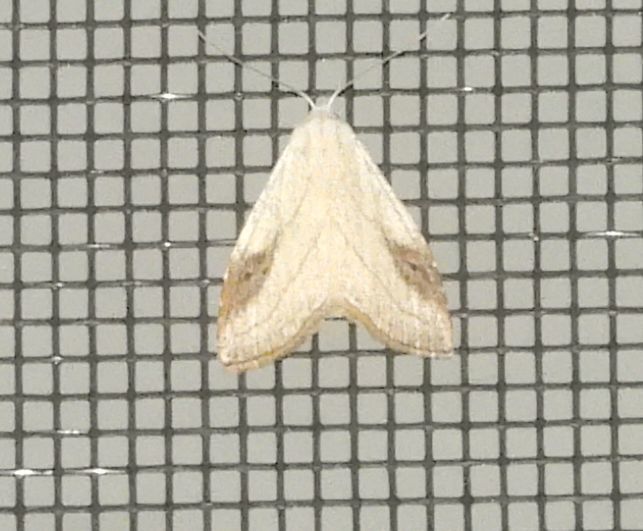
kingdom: Animalia
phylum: Arthropoda
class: Insecta
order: Lepidoptera
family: Erebidae
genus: Rivula
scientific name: Rivula propinqualis
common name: Spotted grass moth
